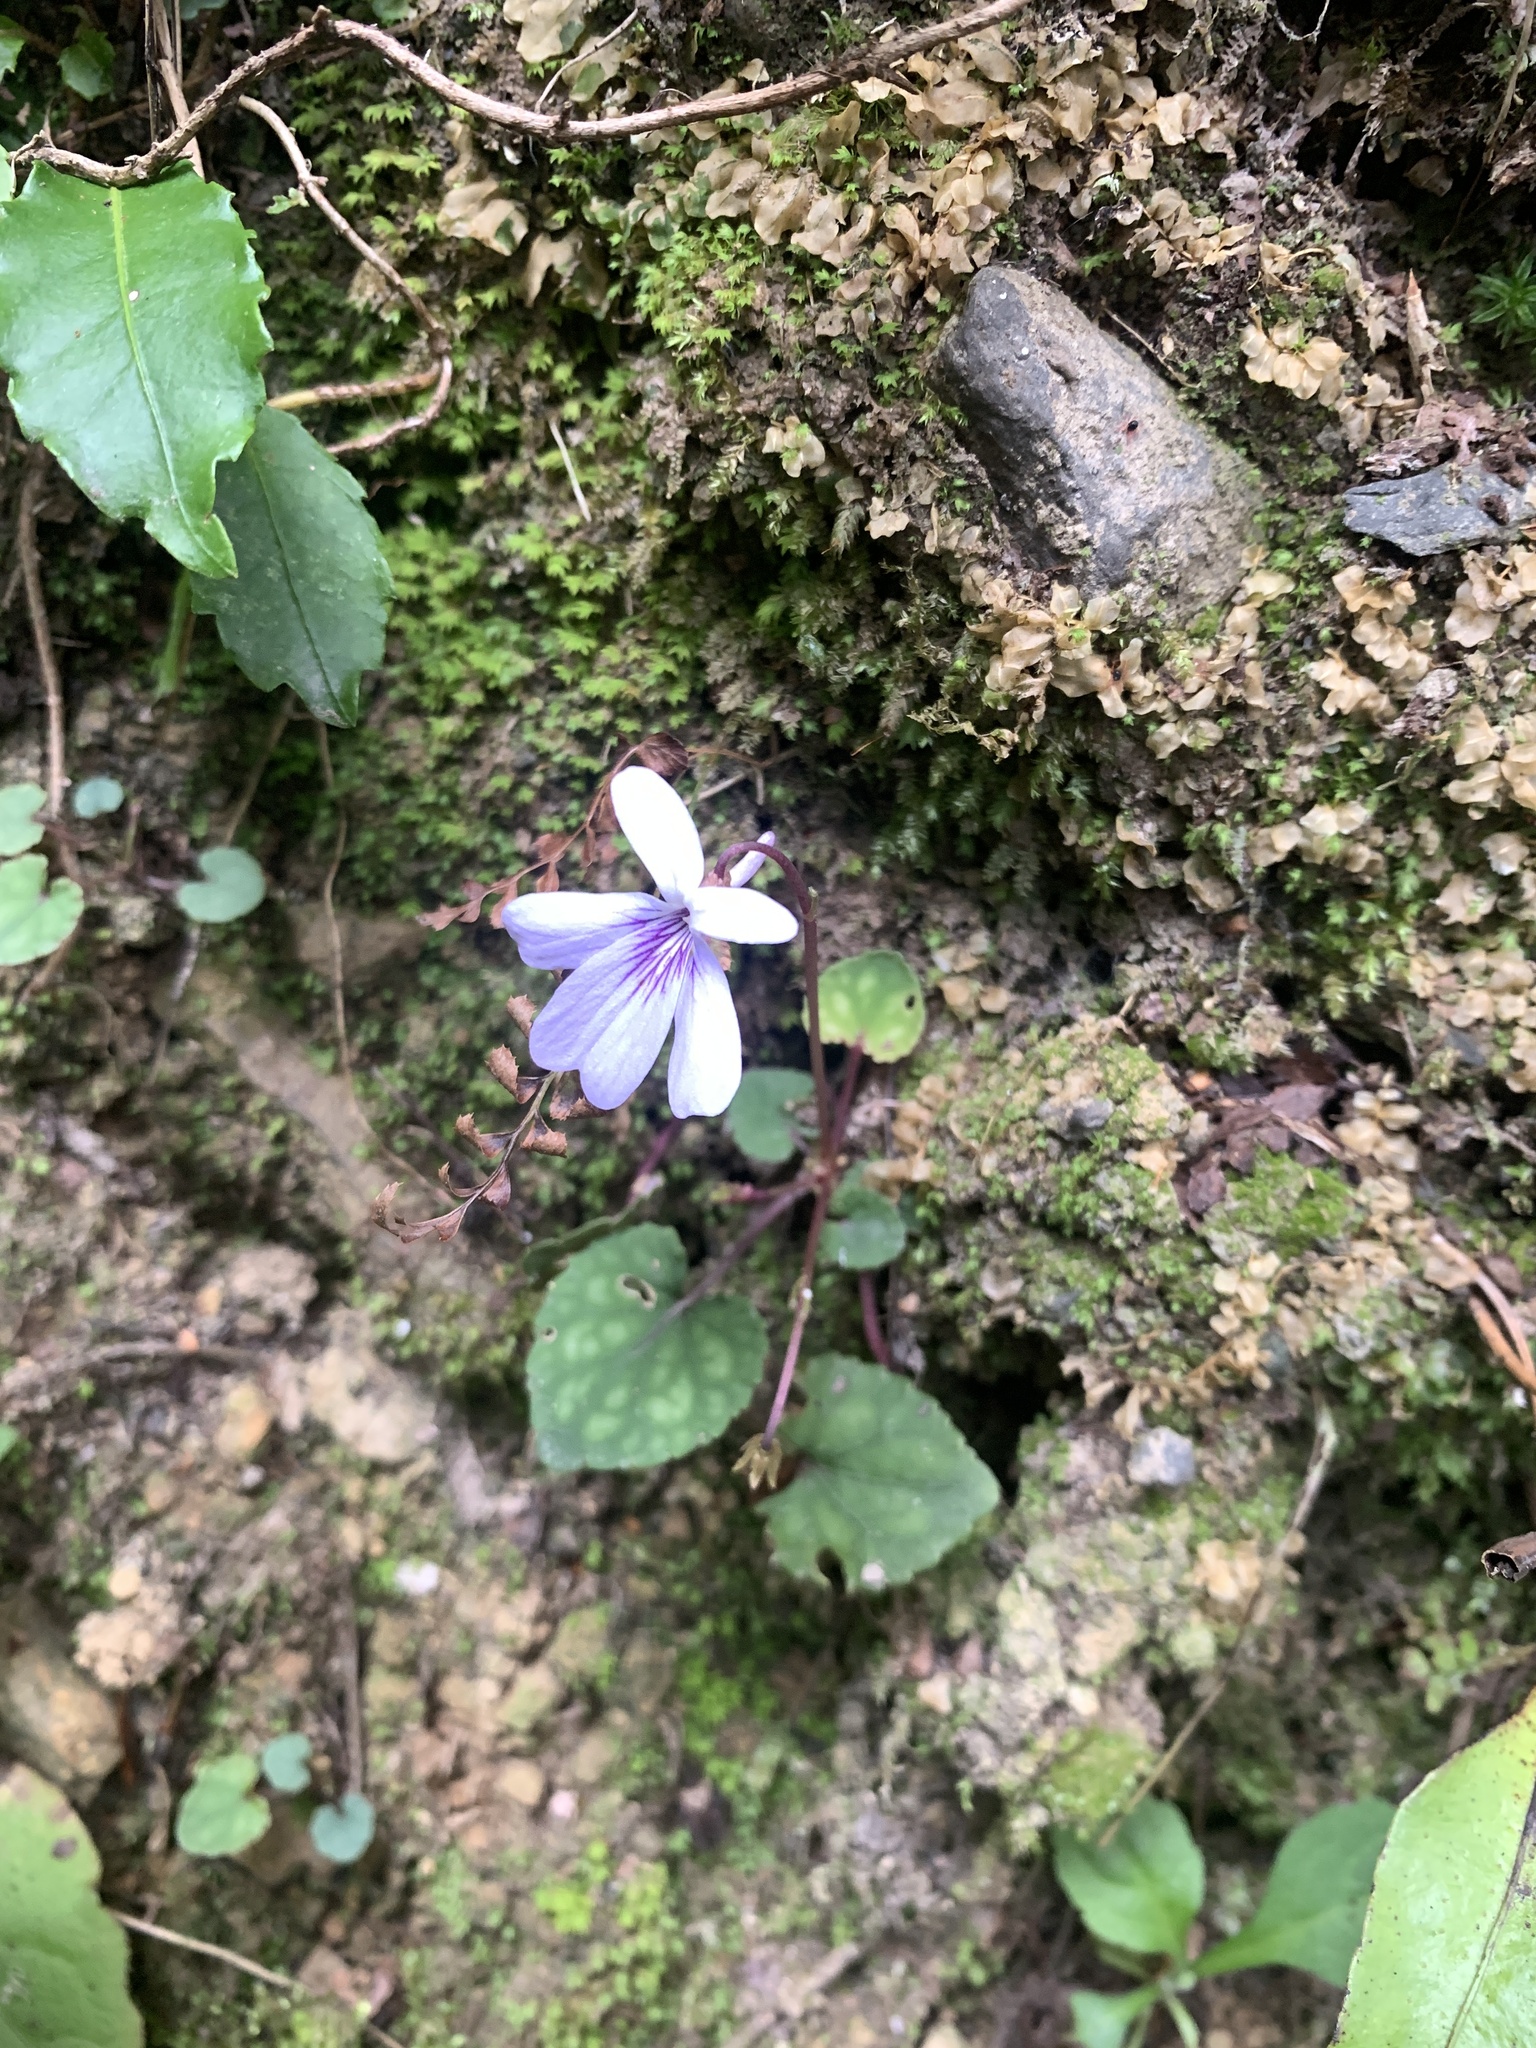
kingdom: Plantae
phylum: Tracheophyta
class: Magnoliopsida
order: Malpighiales
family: Violaceae
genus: Viola
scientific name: Viola formosana
